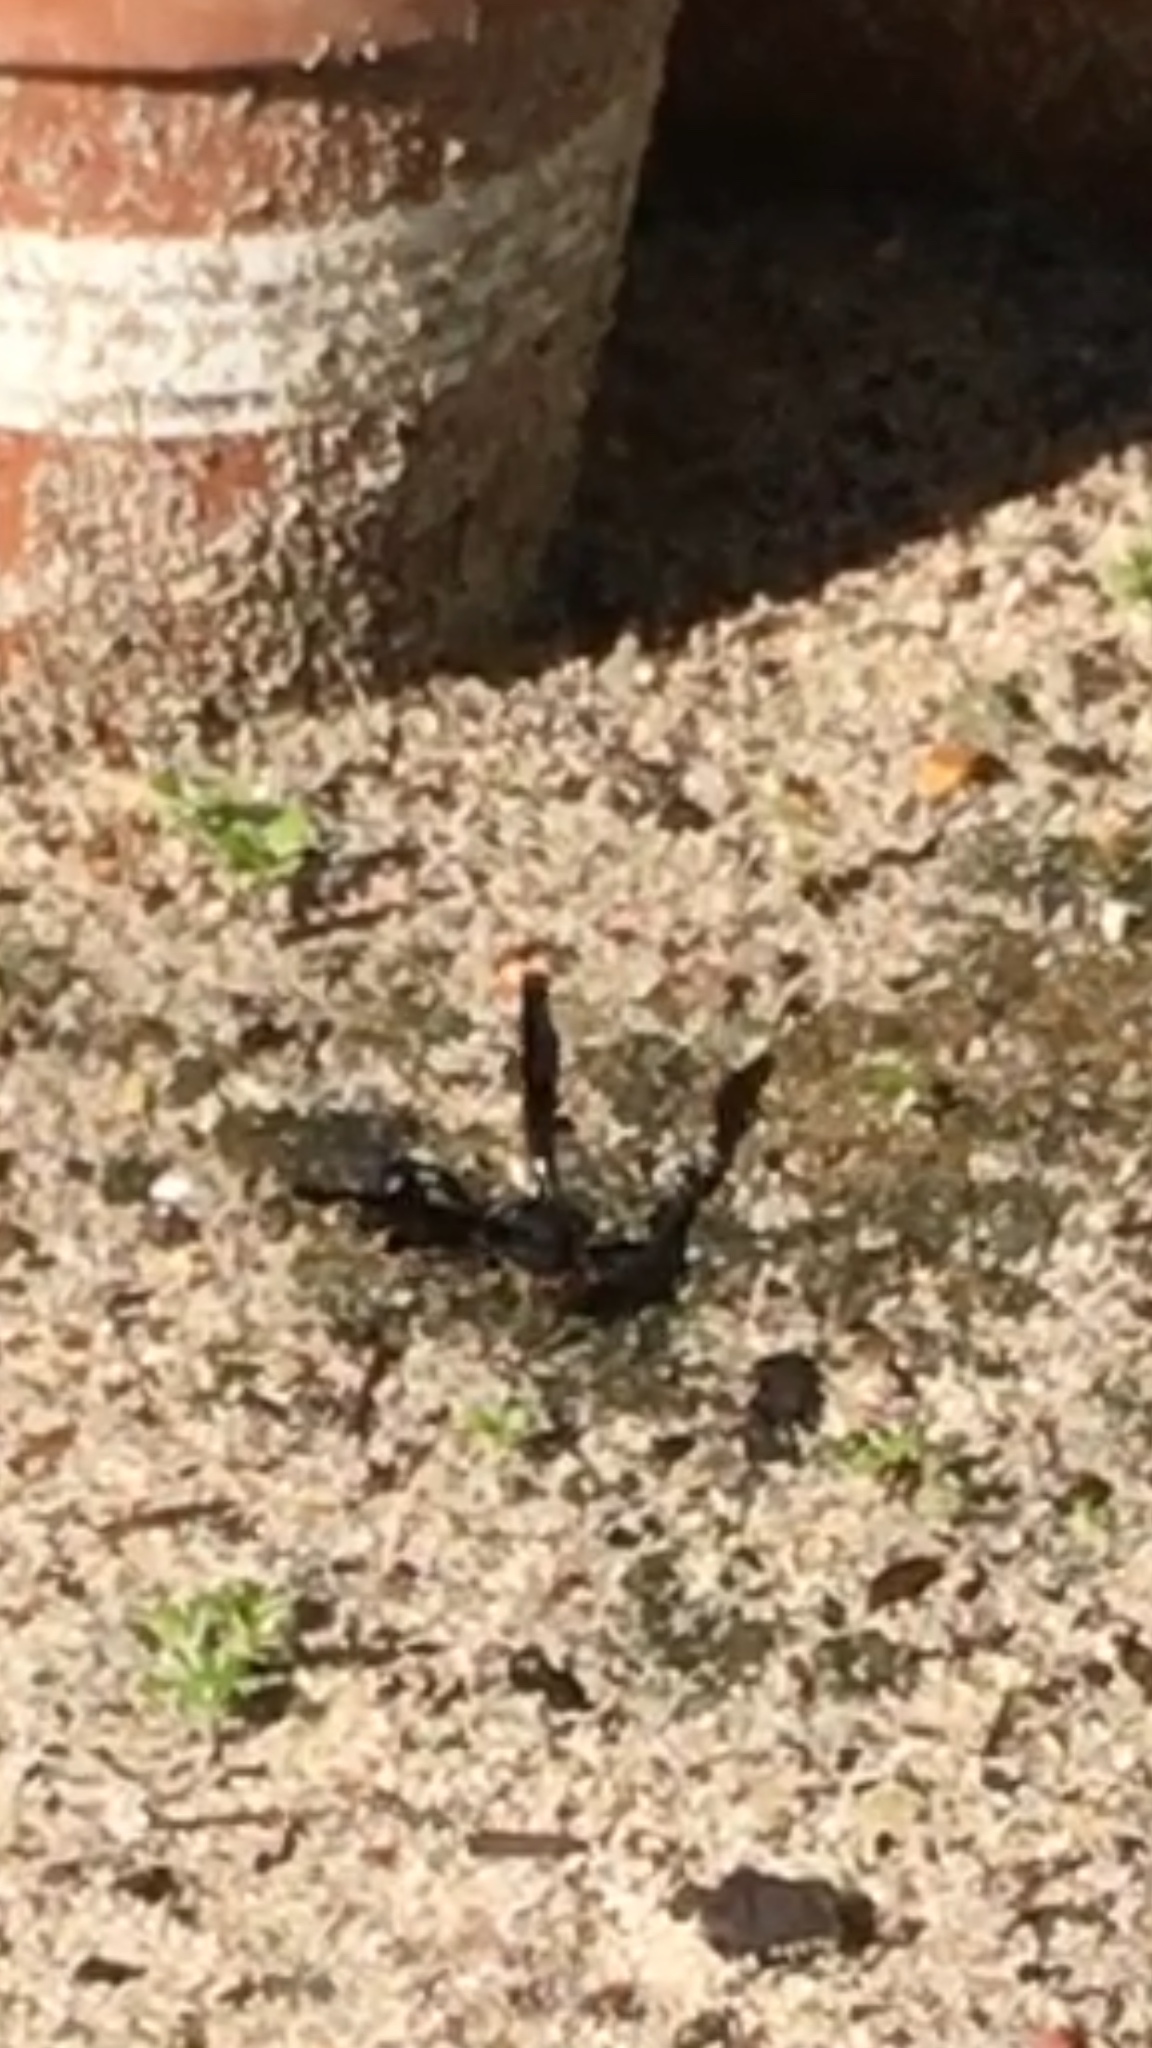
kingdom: Animalia
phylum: Arthropoda
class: Insecta
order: Hymenoptera
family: Eumenidae
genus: Delta
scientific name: Delta
